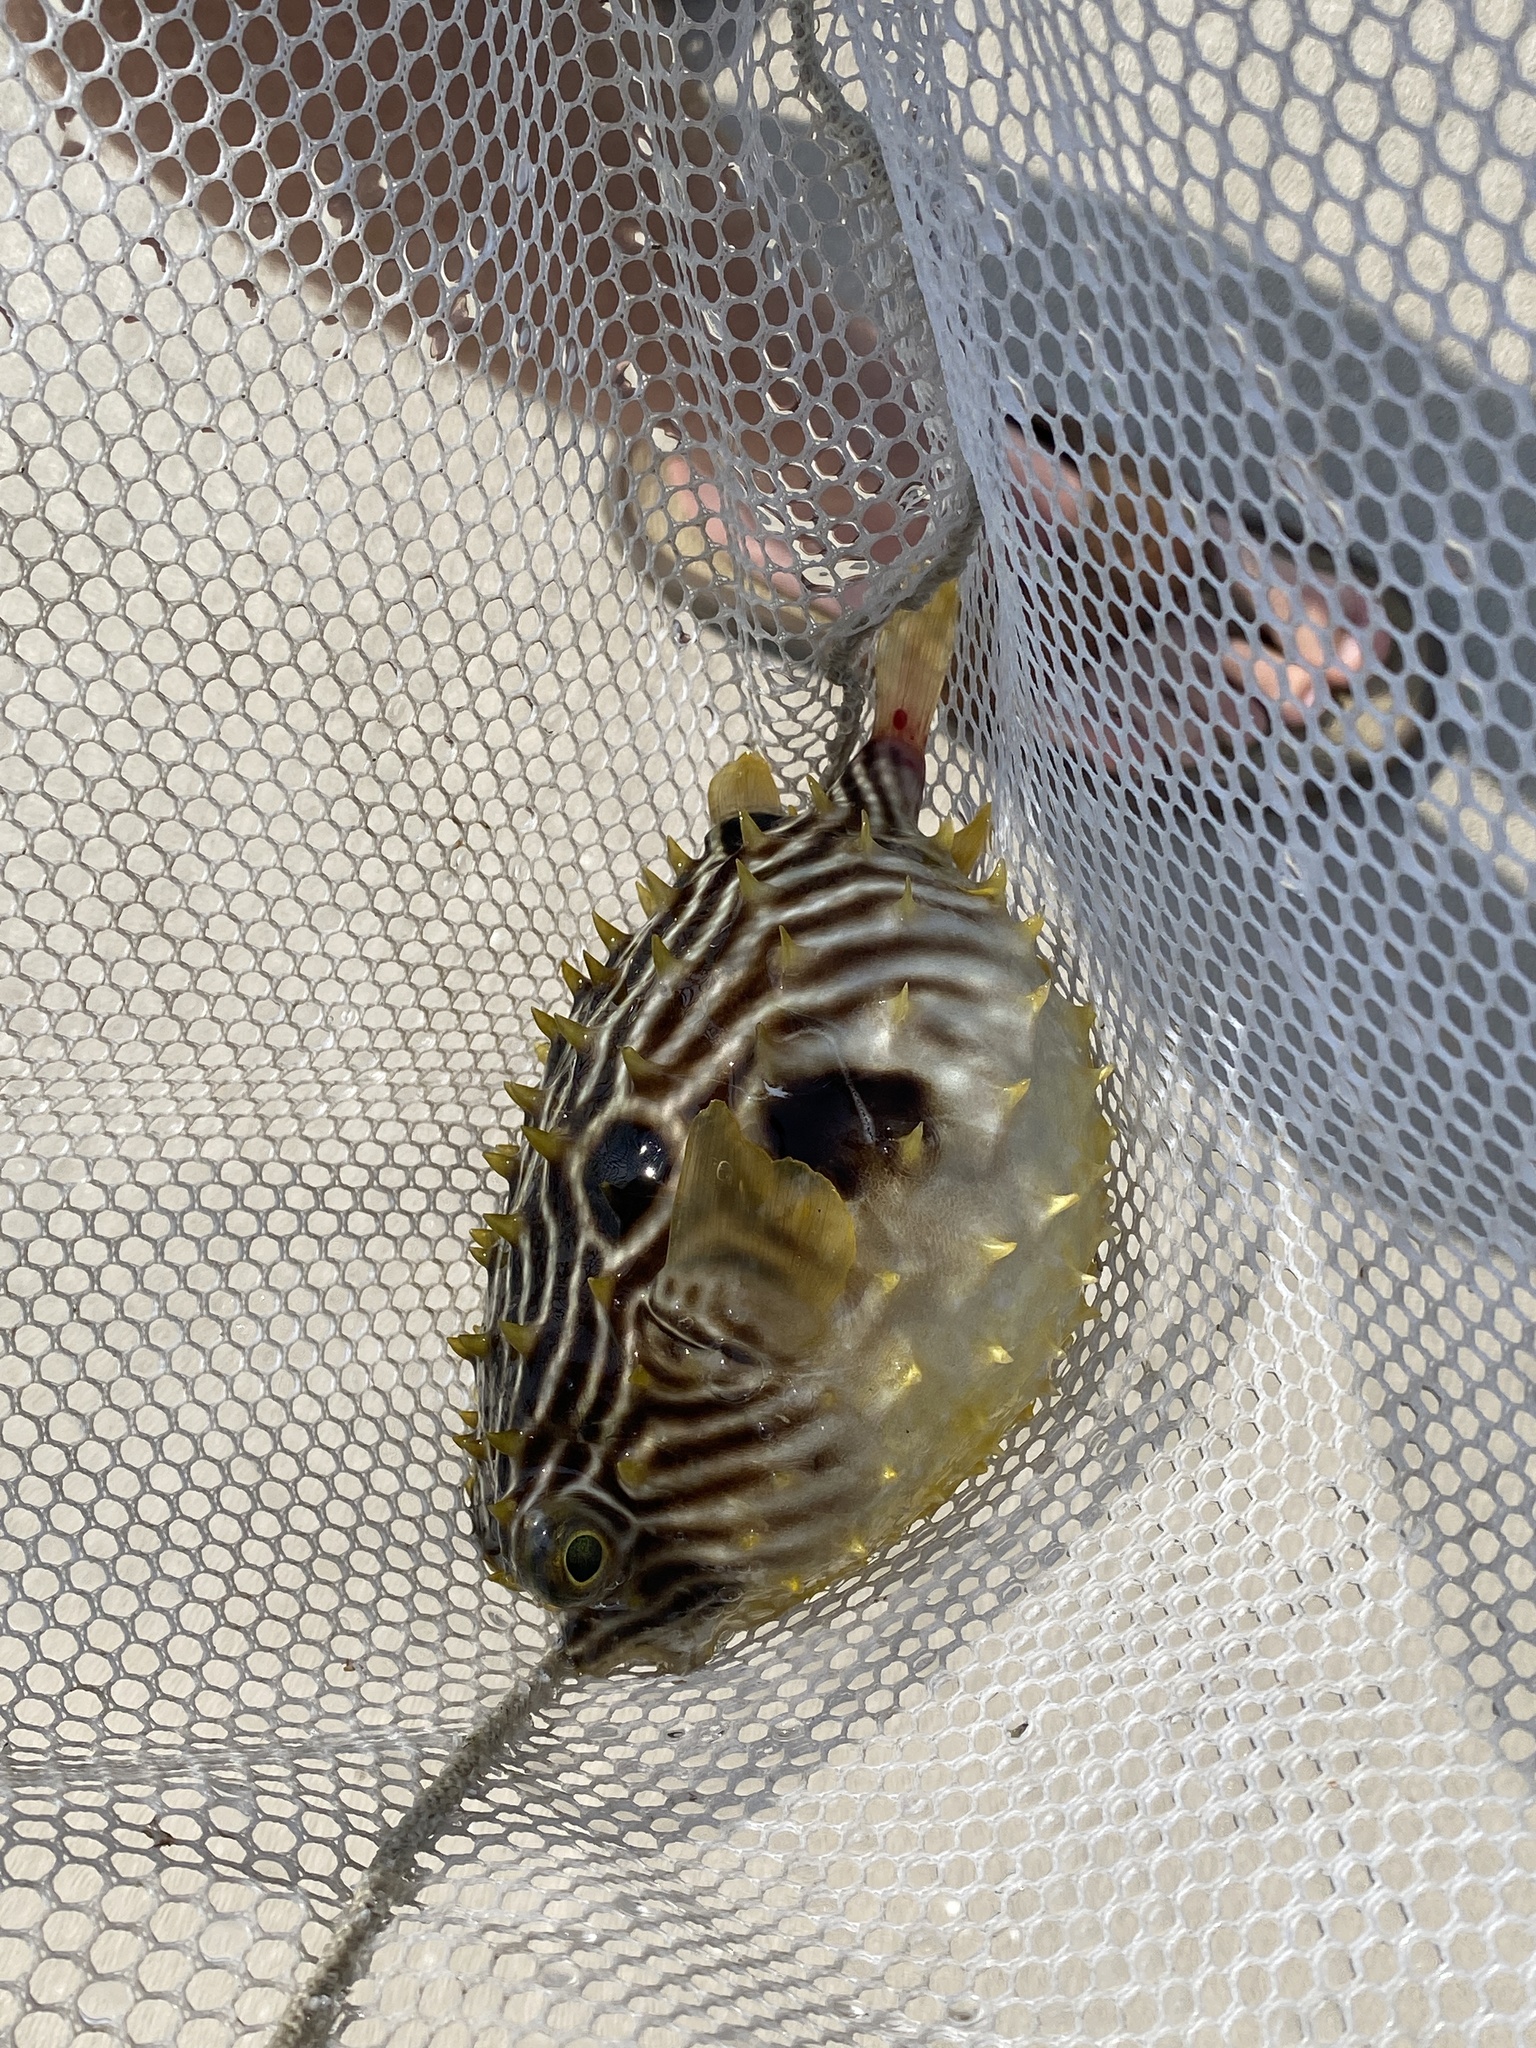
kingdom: Animalia
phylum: Chordata
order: Tetraodontiformes
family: Diodontidae
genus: Chilomycterus
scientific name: Chilomycterus schoepfii
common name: Striped burrfish
